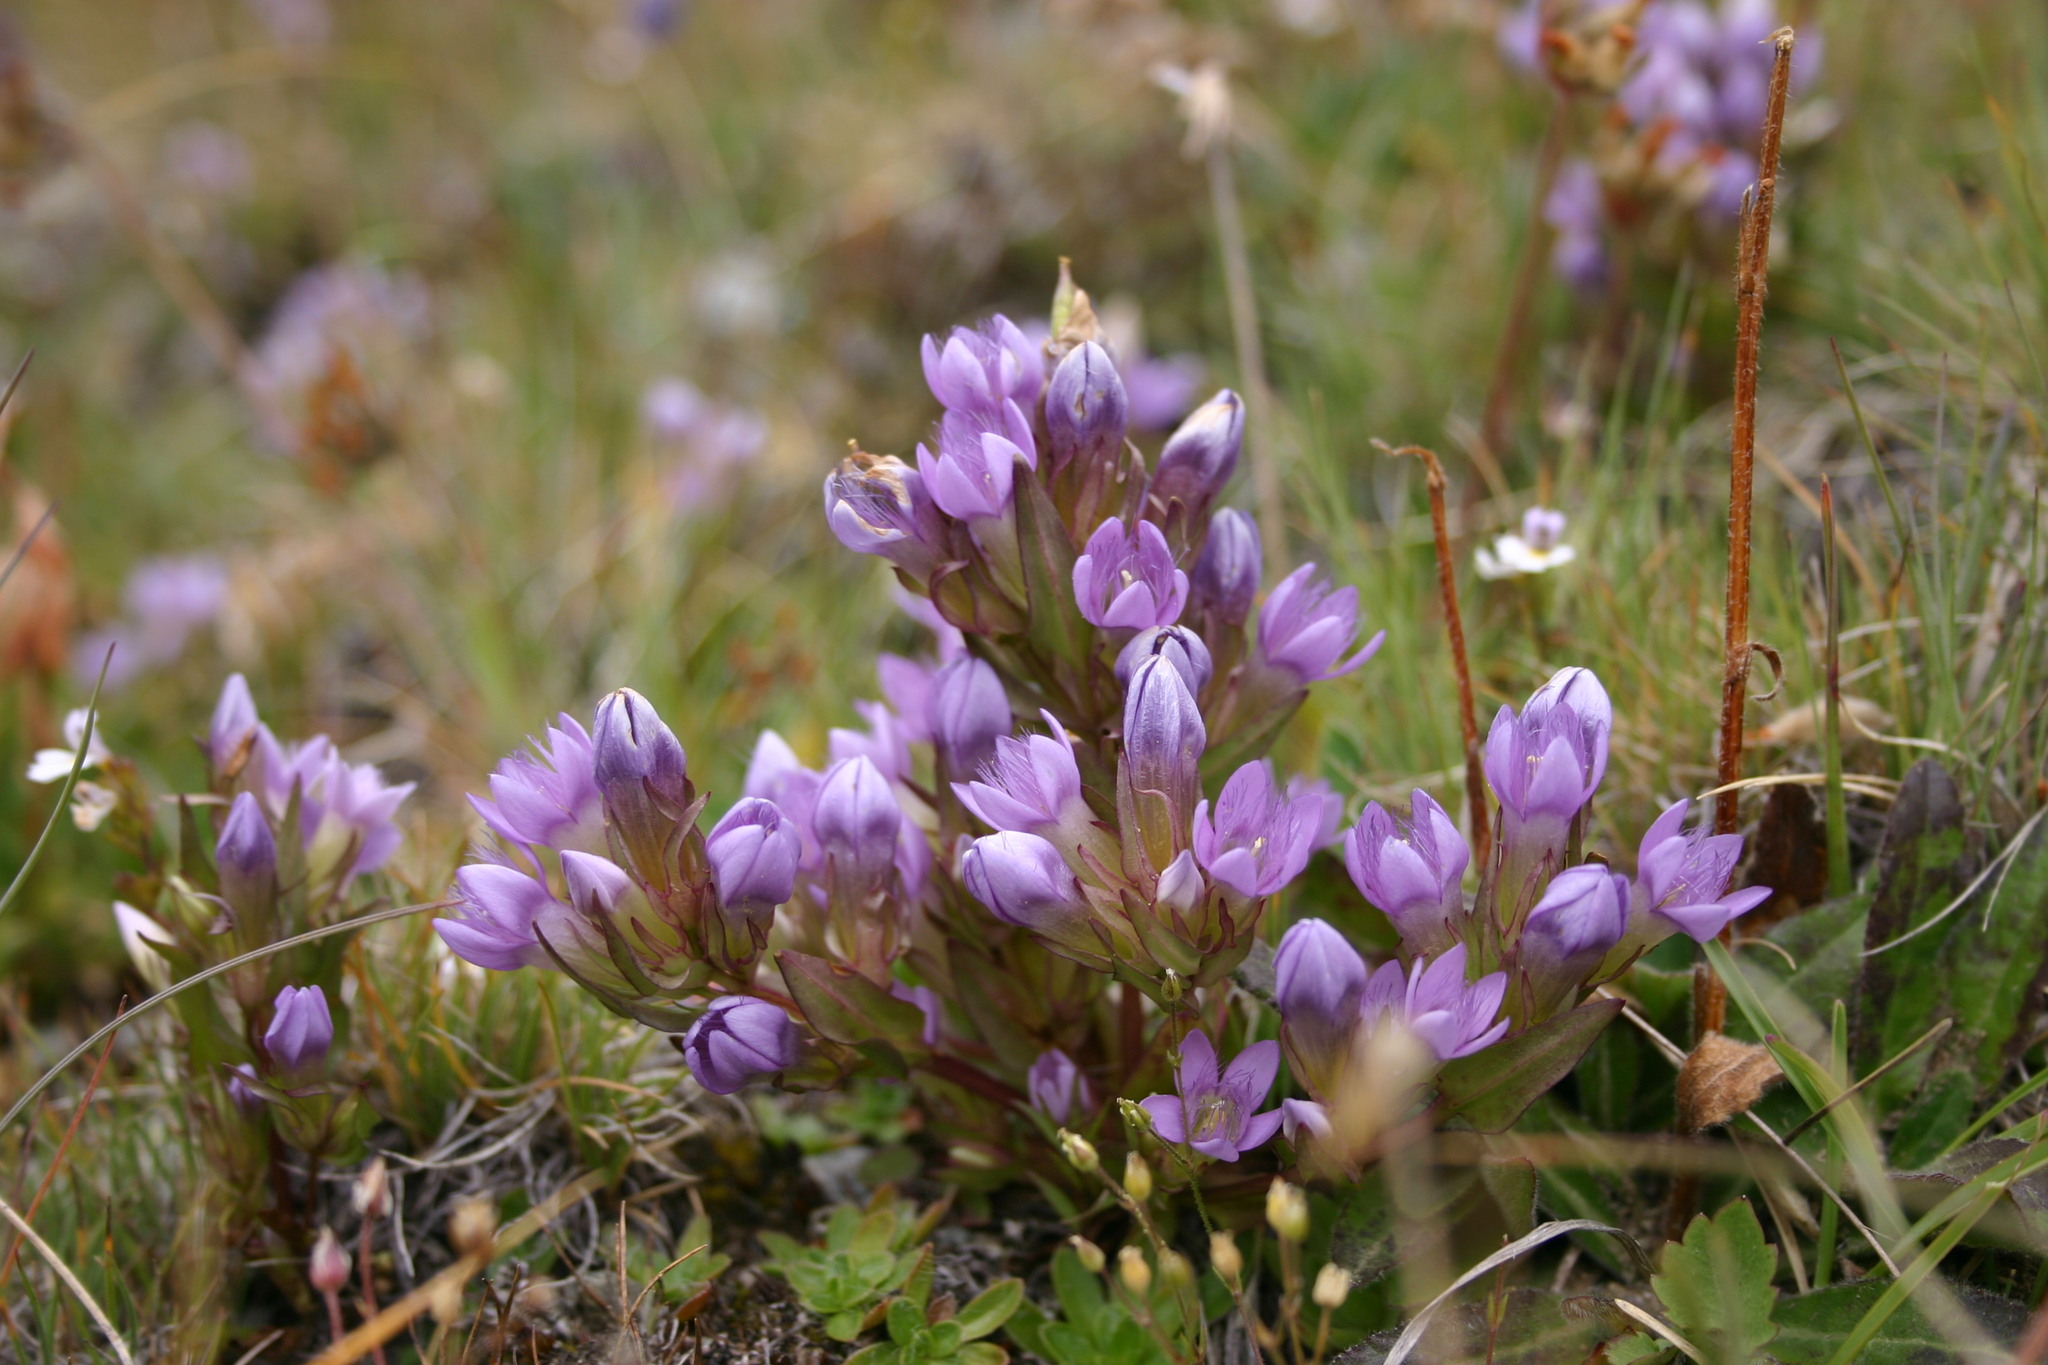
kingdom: Plantae
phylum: Tracheophyta
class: Magnoliopsida
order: Gentianales
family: Gentianaceae
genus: Gentianella
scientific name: Gentianella ramosa
